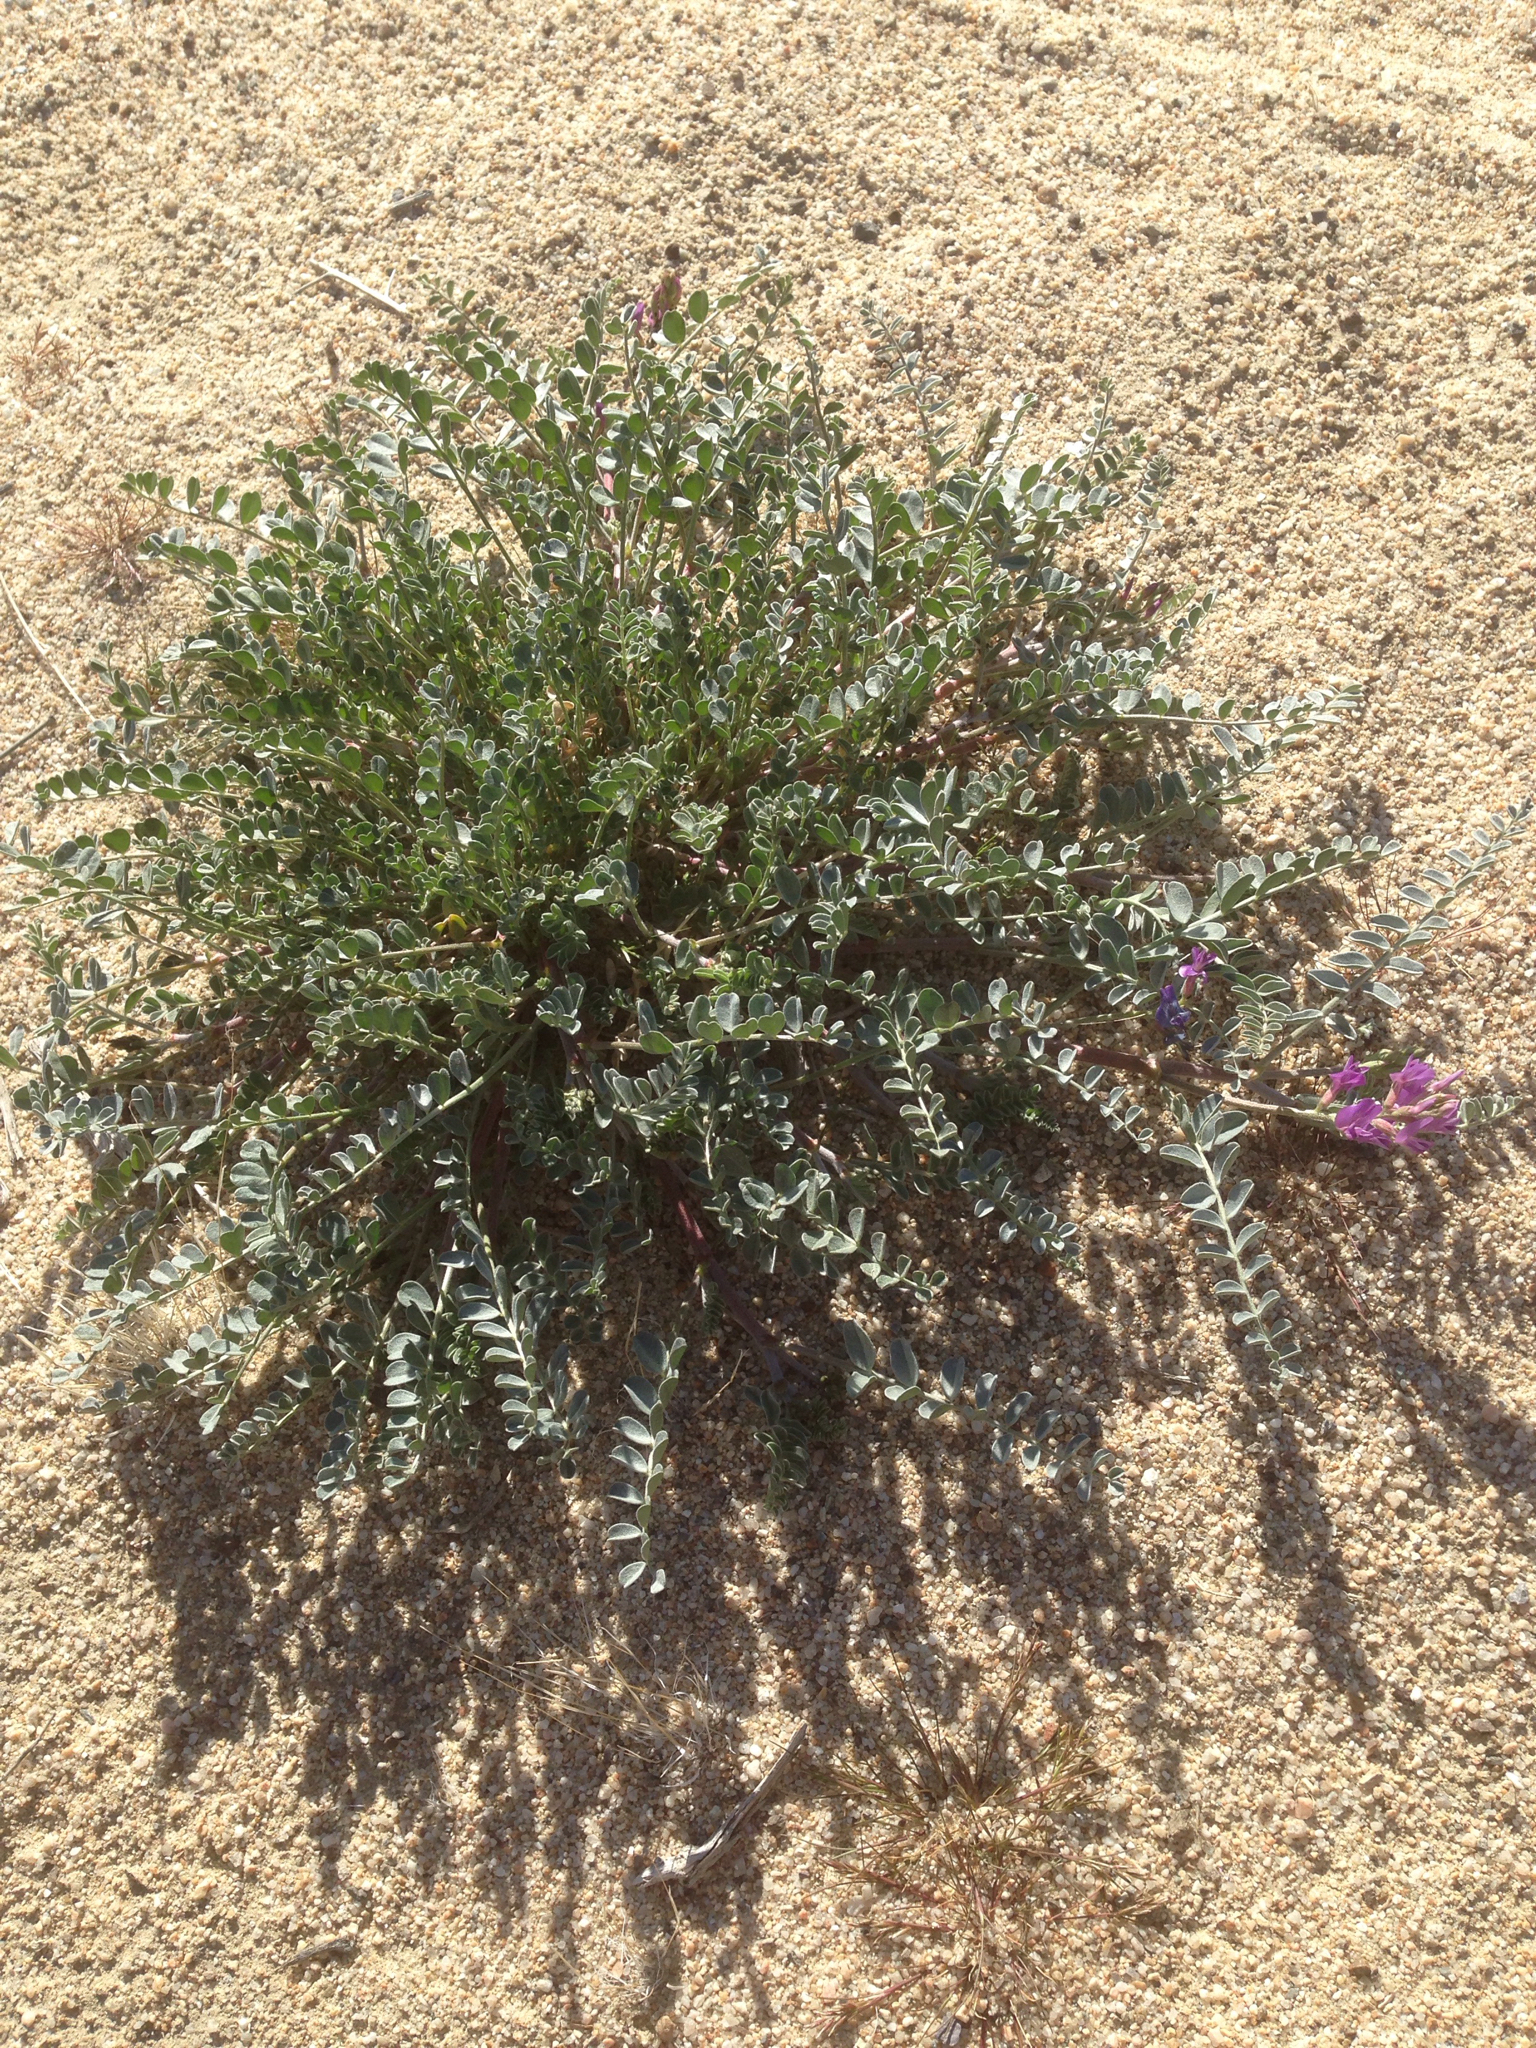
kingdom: Plantae
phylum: Tracheophyta
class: Magnoliopsida
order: Fabales
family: Fabaceae
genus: Astragalus
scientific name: Astragalus lentiginosus
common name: Freckled milkvetch
